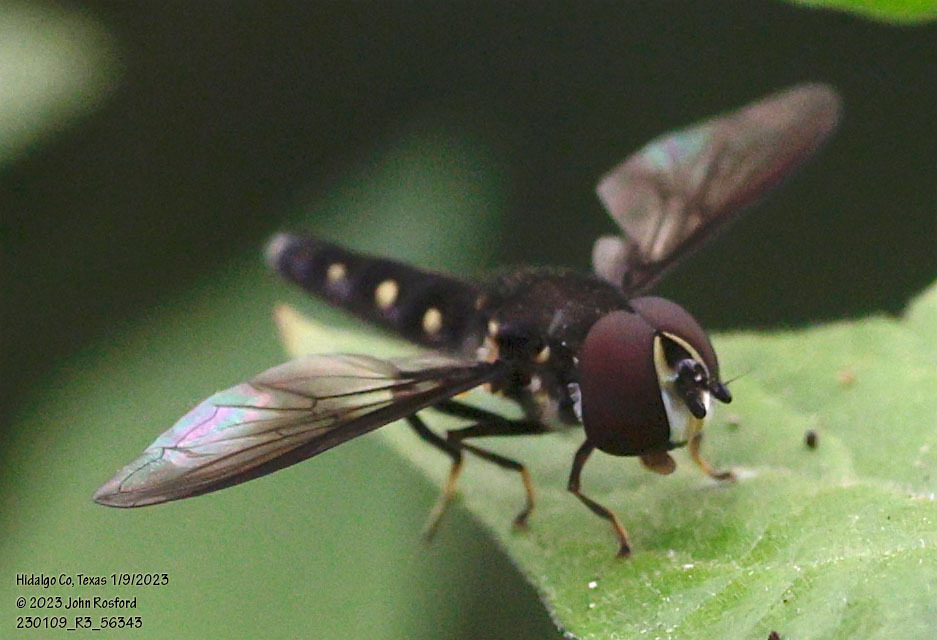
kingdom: Animalia
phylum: Arthropoda
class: Insecta
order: Diptera
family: Syrphidae
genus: Ocyptamus
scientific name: Ocyptamus gastrostactus
